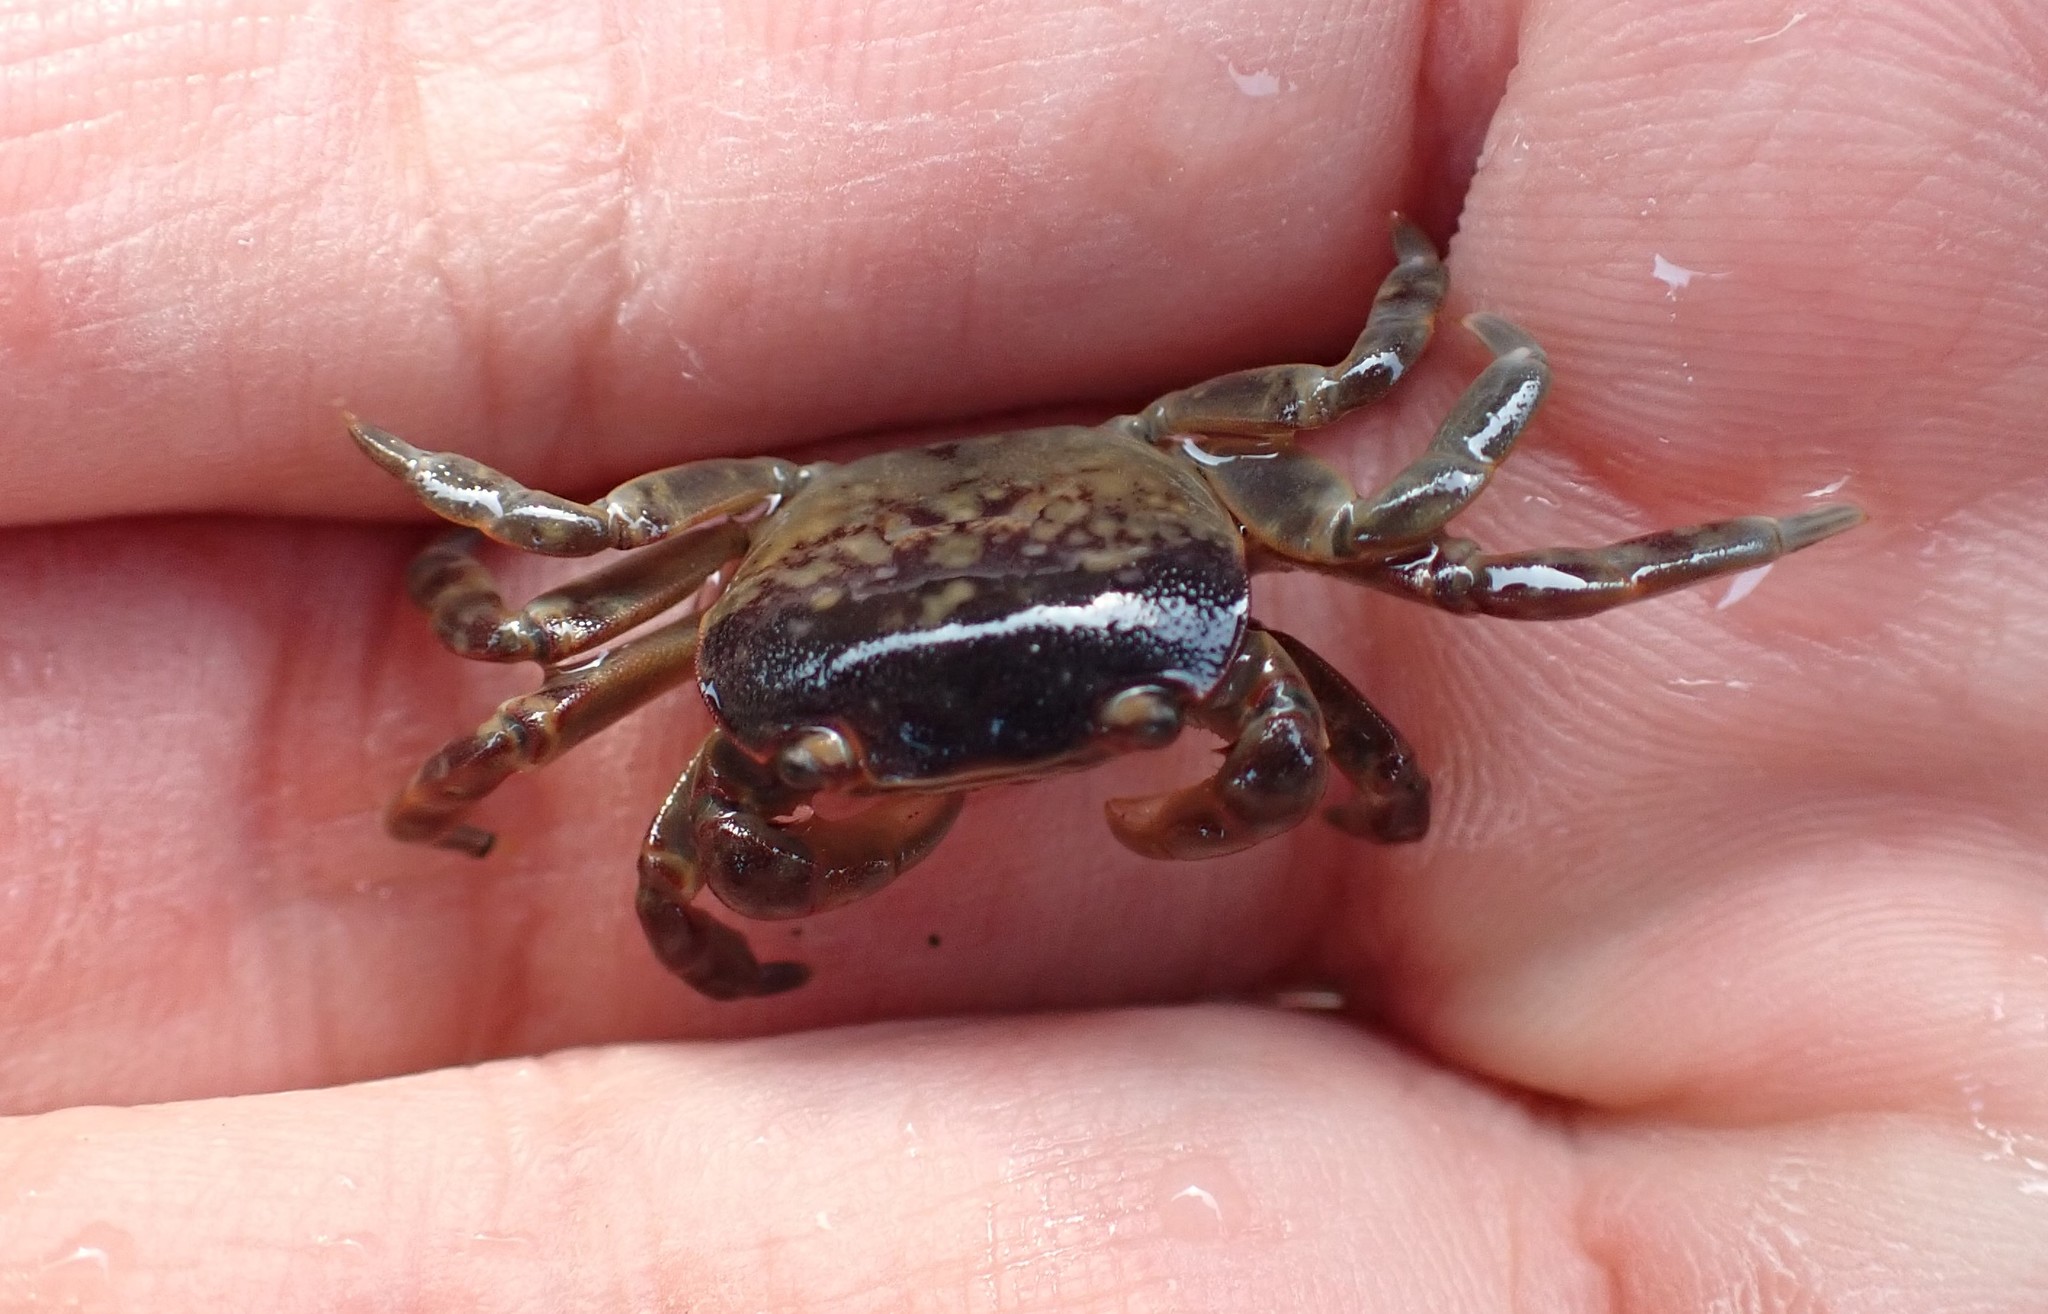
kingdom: Animalia
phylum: Arthropoda
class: Malacostraca
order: Decapoda
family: Varunidae
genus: Cyclograpsus
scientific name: Cyclograpsus granulosus
